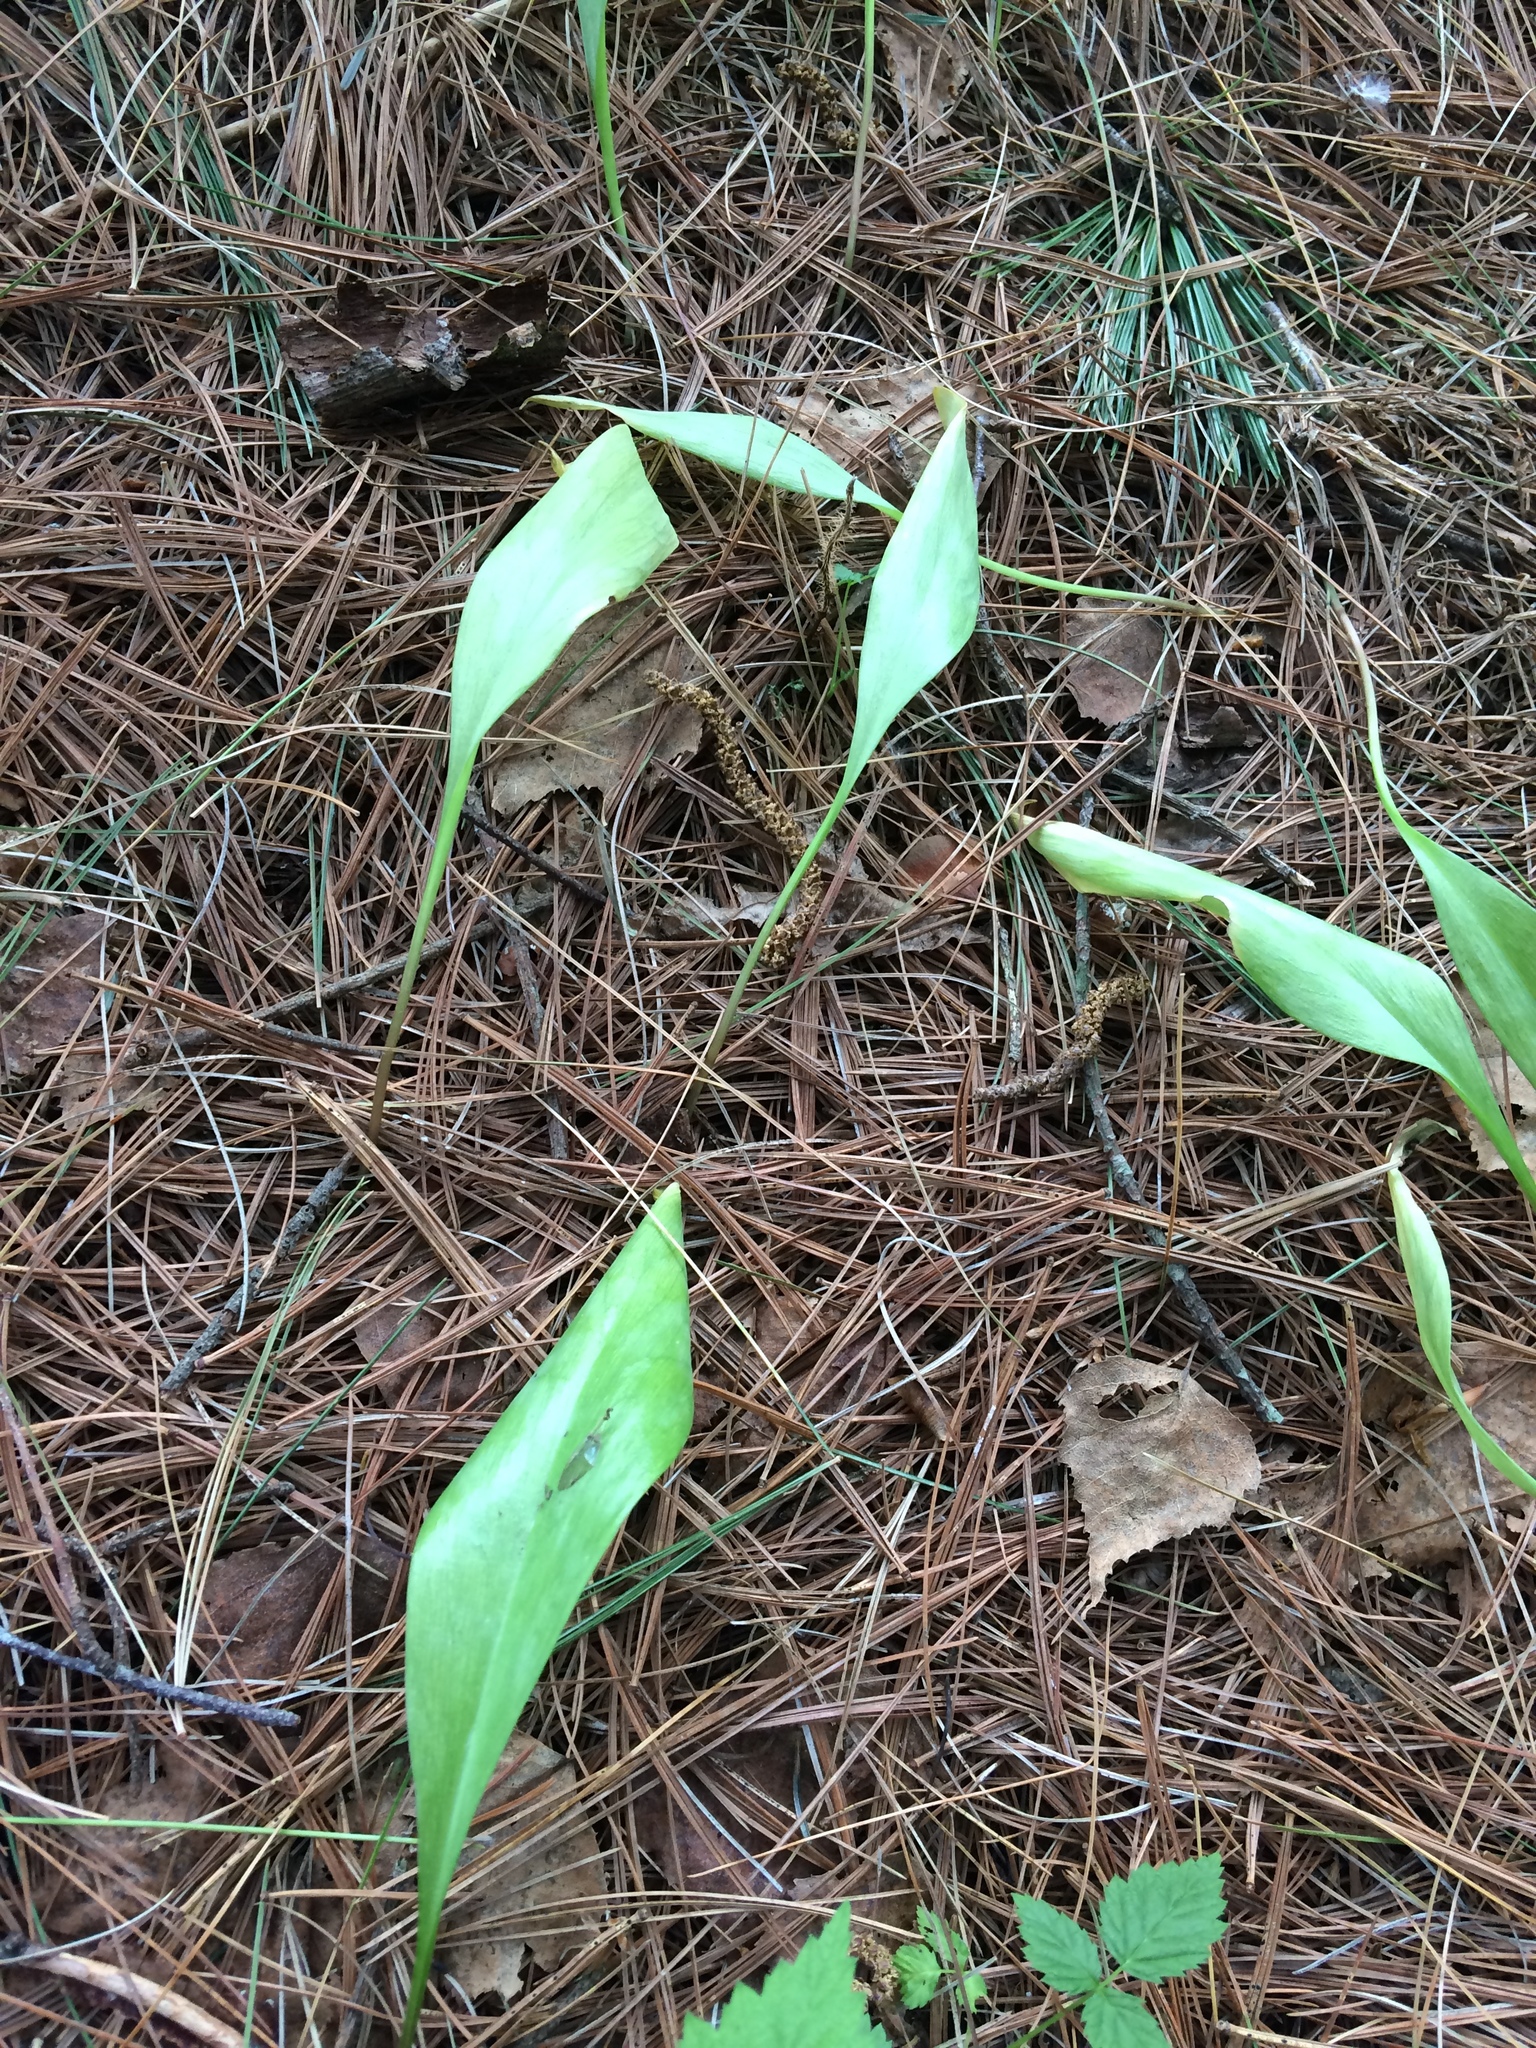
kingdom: Plantae
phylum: Tracheophyta
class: Liliopsida
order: Liliales
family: Liliaceae
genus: Erythronium
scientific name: Erythronium americanum
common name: Yellow adder's-tongue
